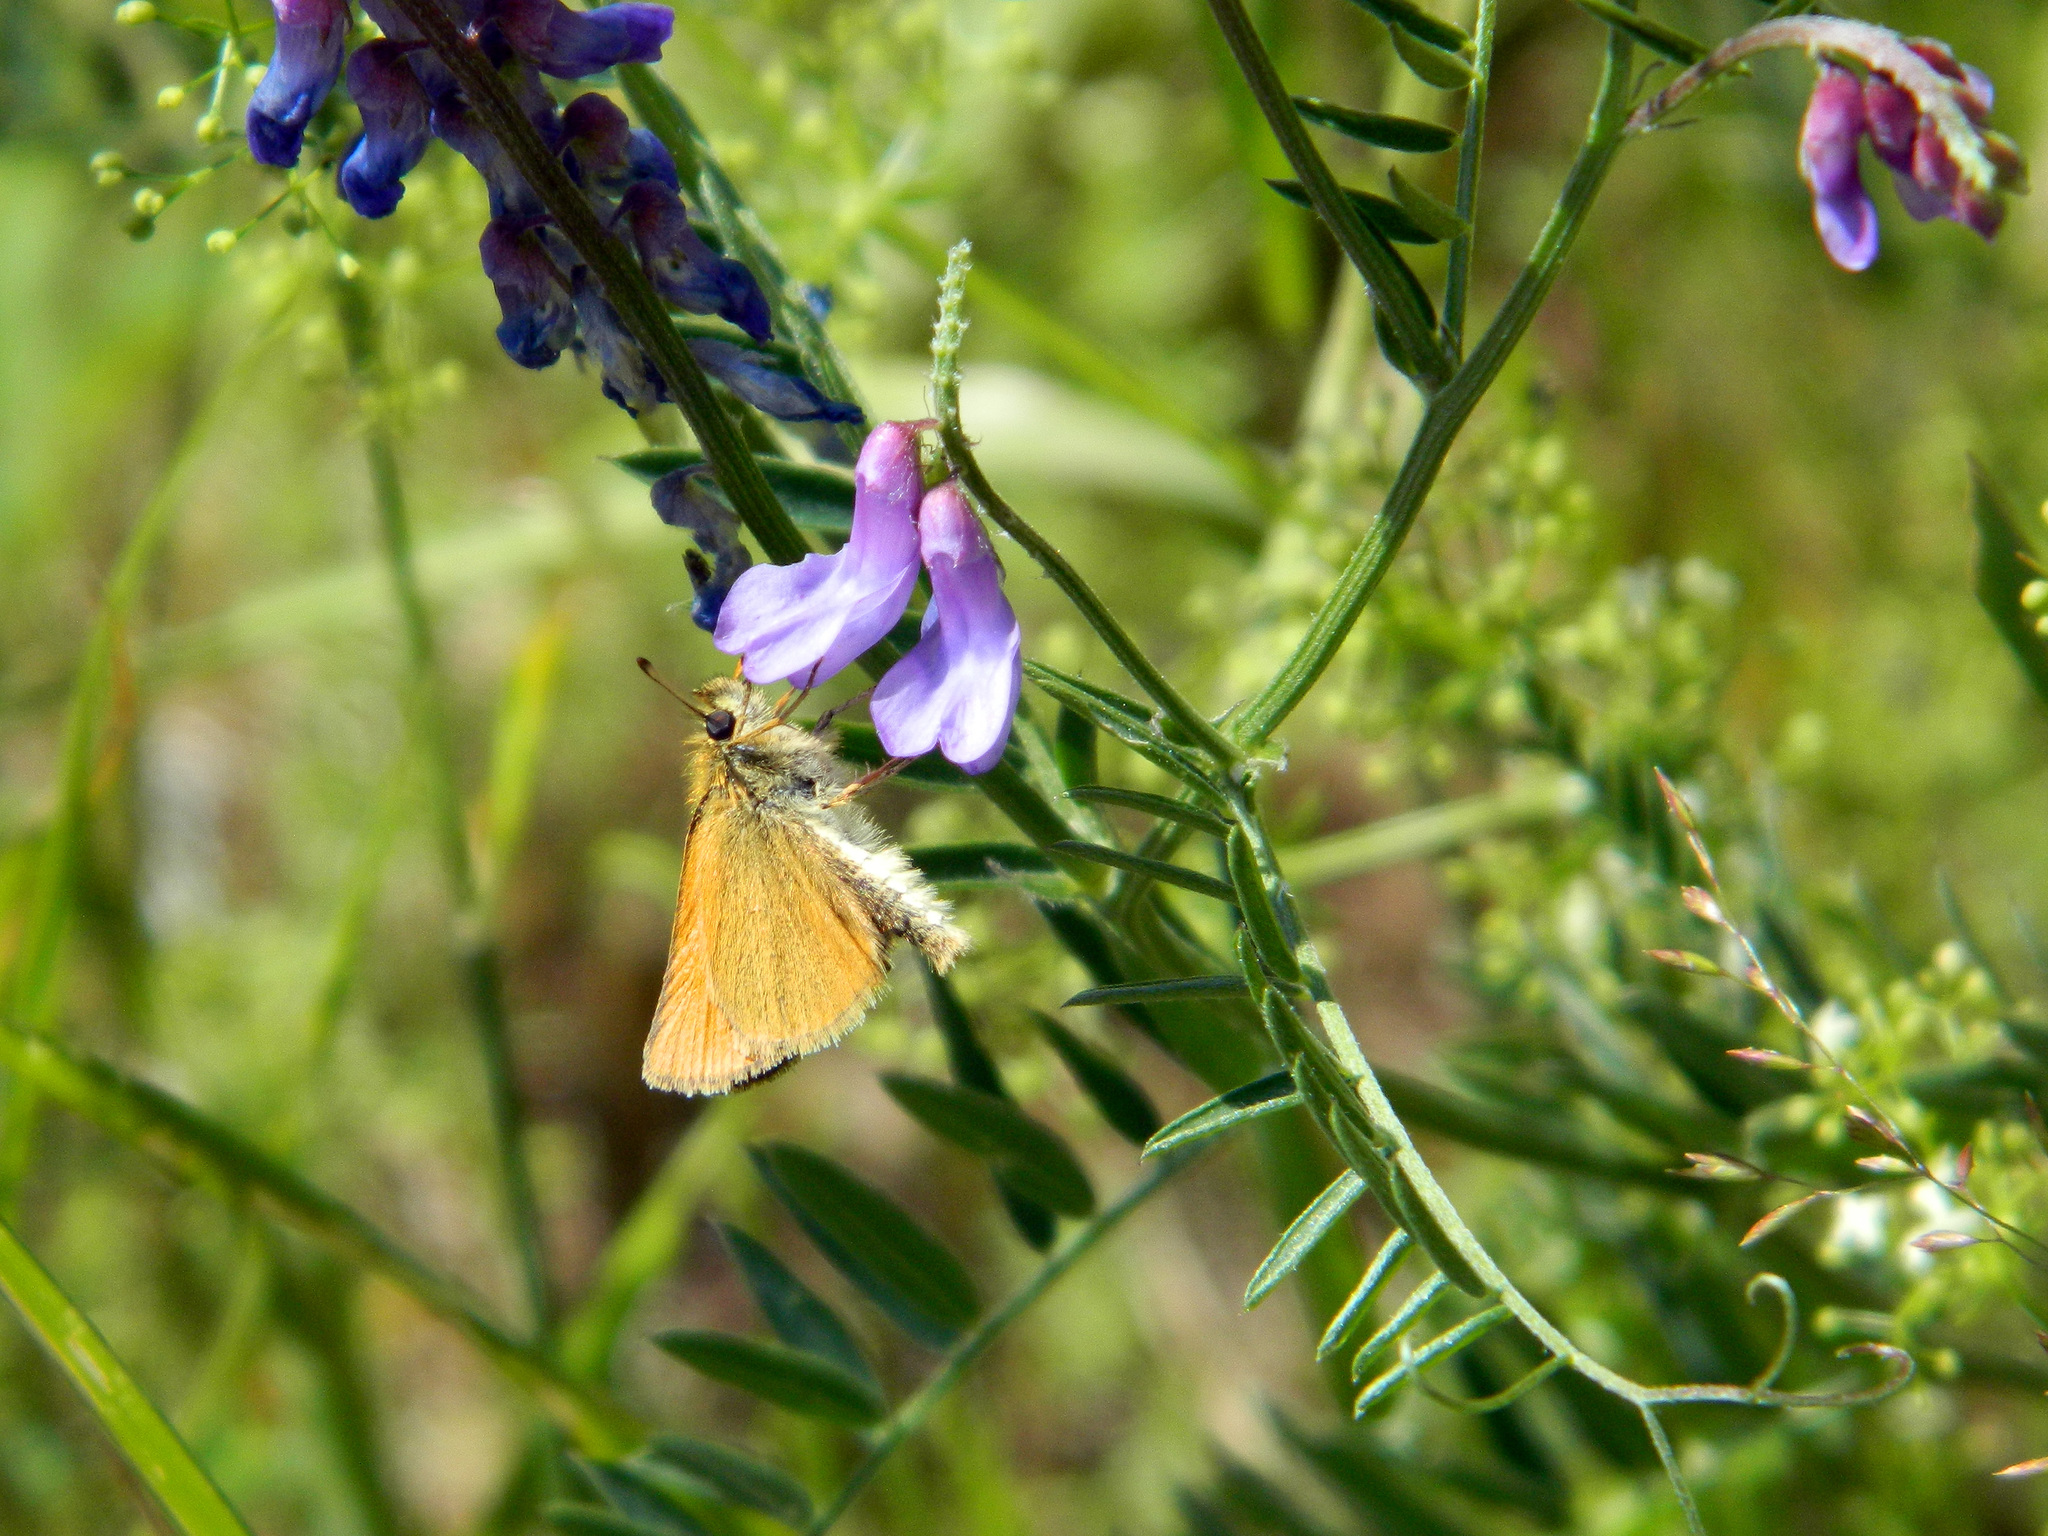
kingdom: Animalia
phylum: Arthropoda
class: Insecta
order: Lepidoptera
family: Hesperiidae
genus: Thymelicus
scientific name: Thymelicus lineola
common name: Essex skipper
